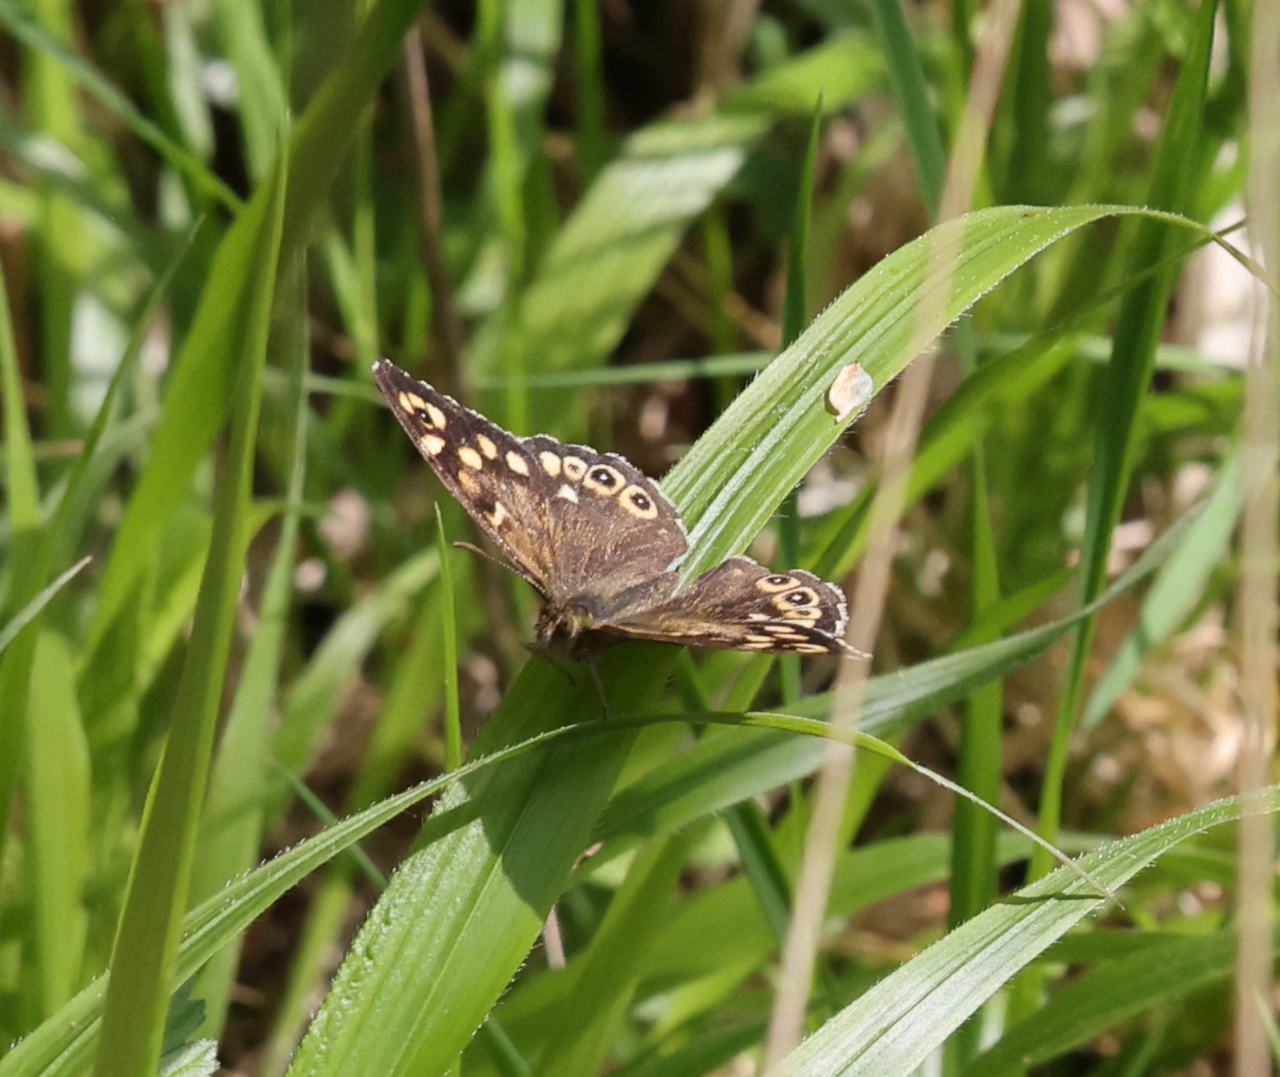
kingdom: Animalia
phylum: Arthropoda
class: Insecta
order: Lepidoptera
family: Nymphalidae
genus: Pararge
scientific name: Pararge aegeria
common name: Speckled wood
